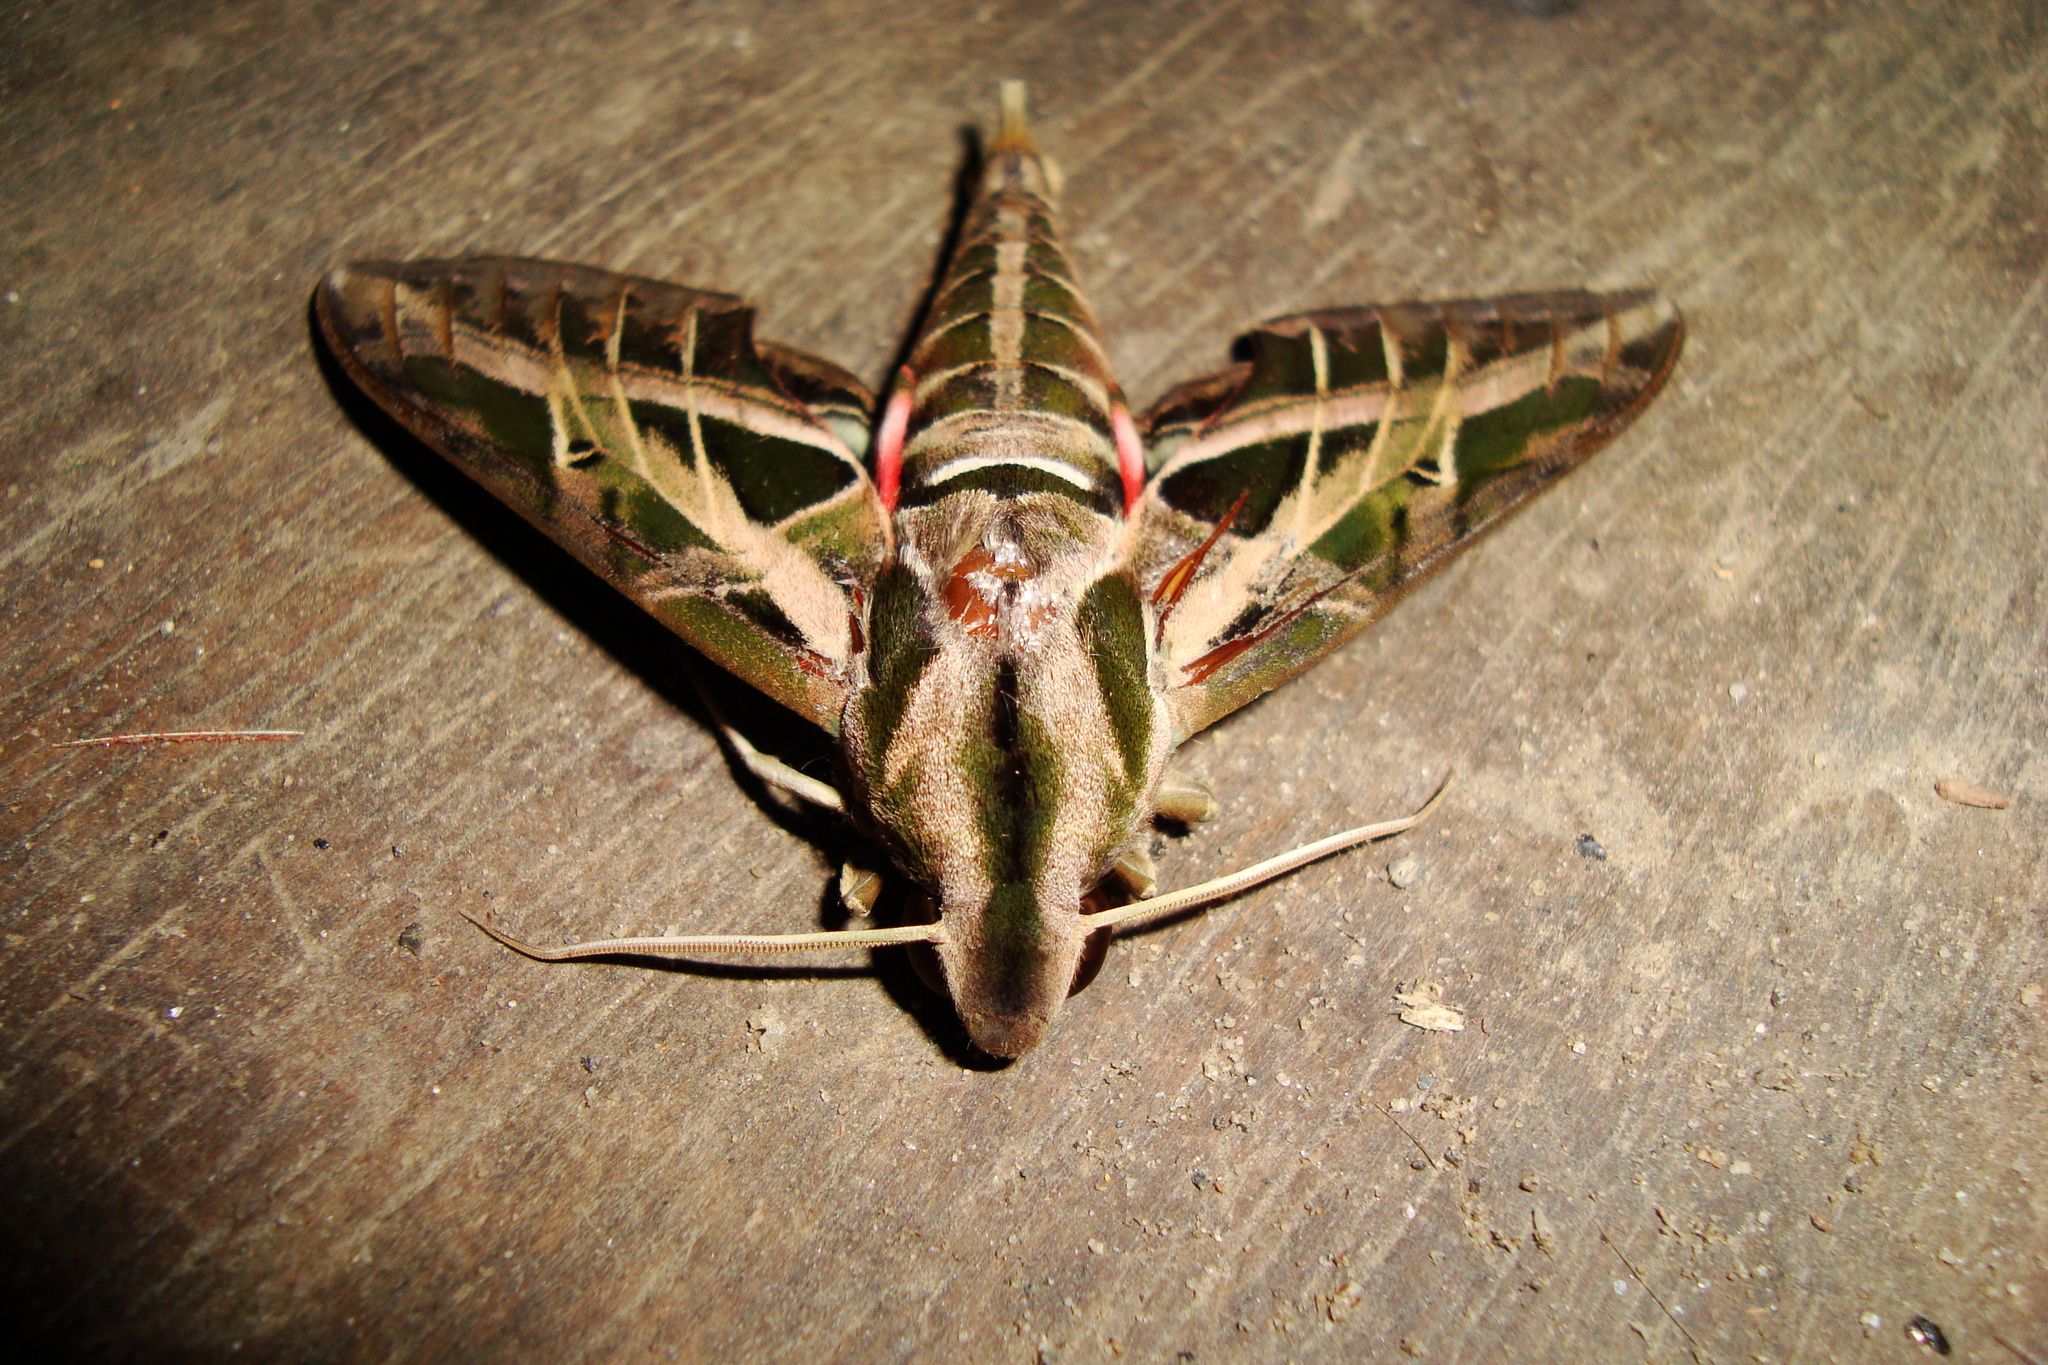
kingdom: Animalia
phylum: Arthropoda
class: Insecta
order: Lepidoptera
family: Sphingidae
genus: Eumorpha
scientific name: Eumorpha vitis
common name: Vine sphinx
